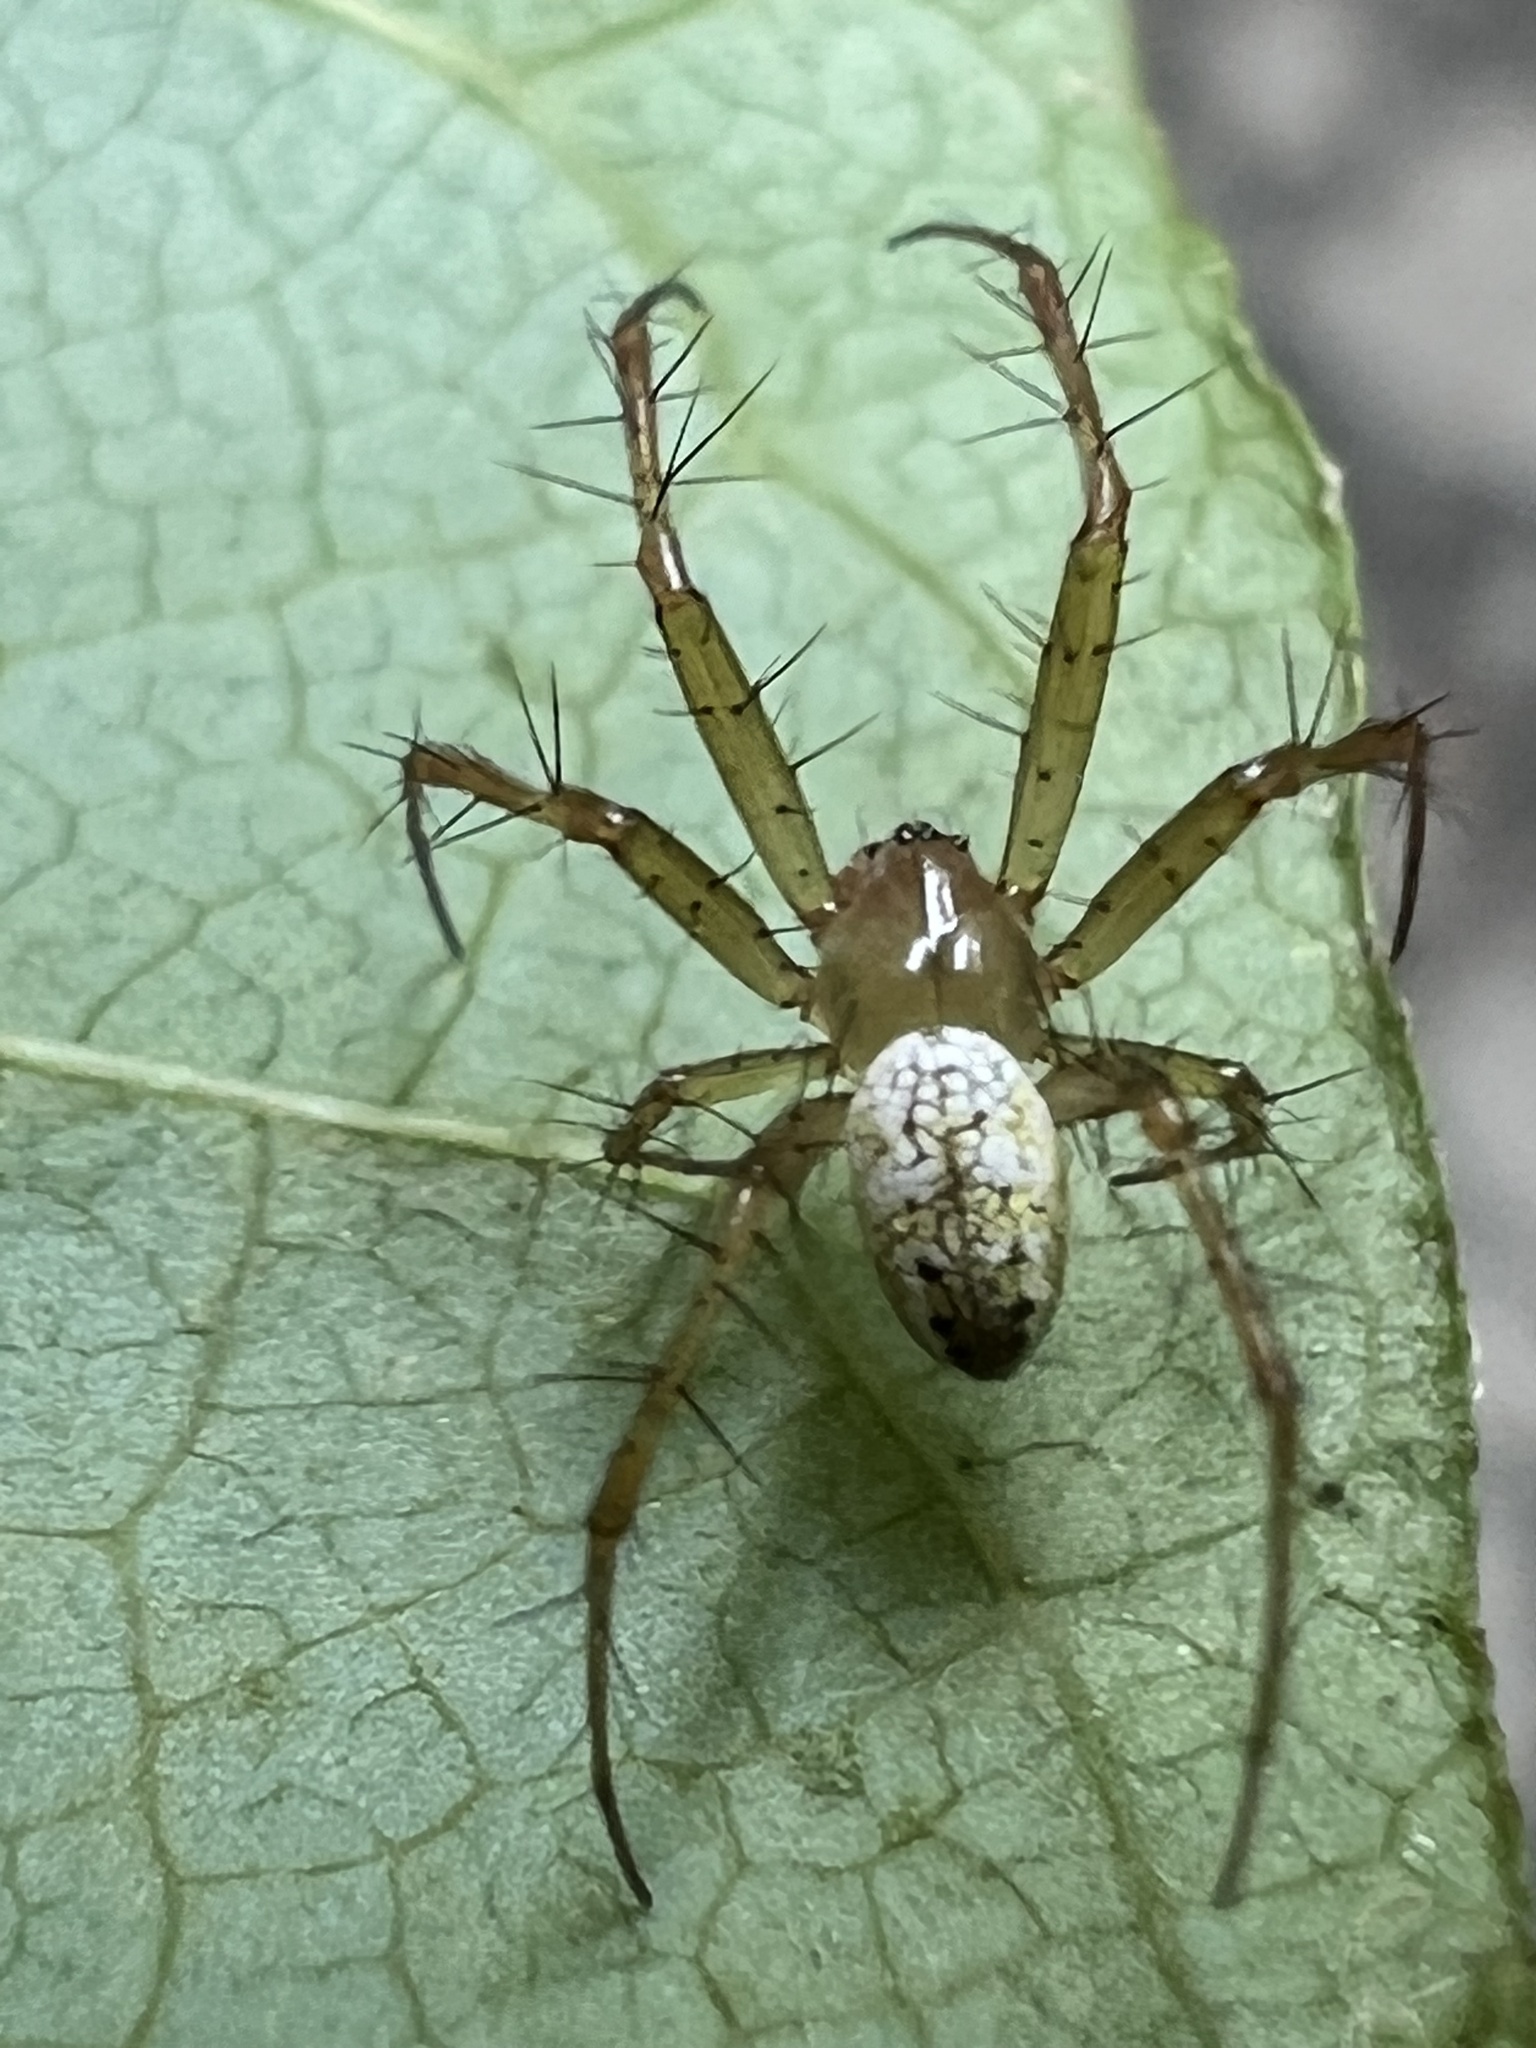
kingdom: Animalia
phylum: Arthropoda
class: Arachnida
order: Araneae
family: Araneidae
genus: Mangora
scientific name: Mangora maculata
